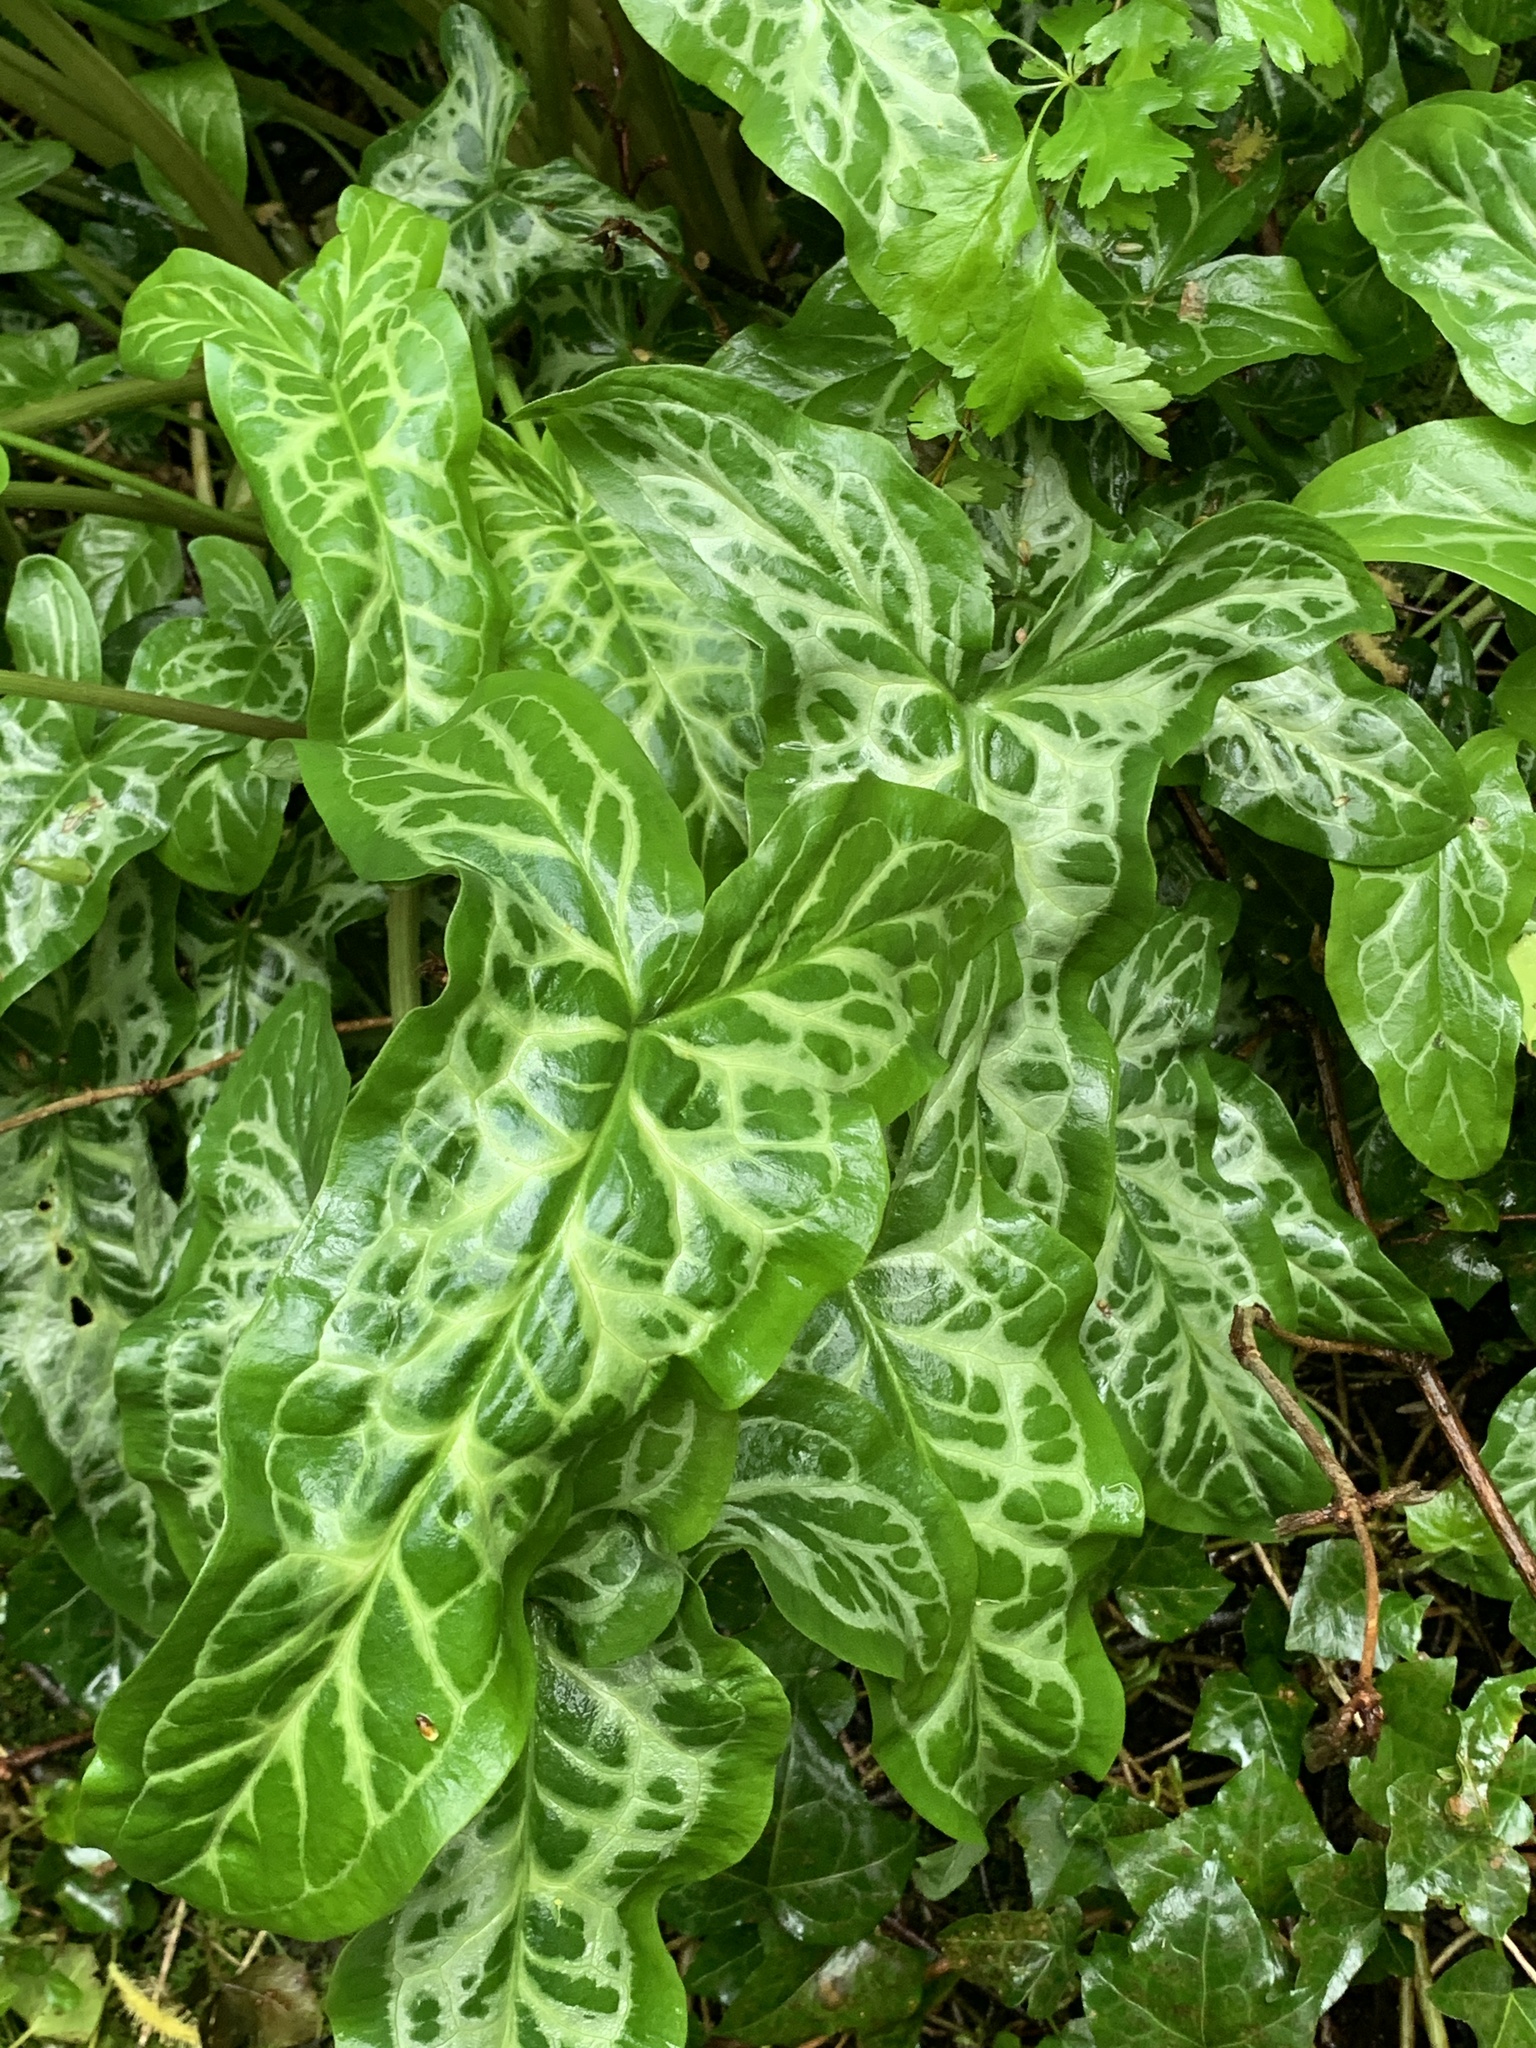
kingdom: Plantae
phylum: Tracheophyta
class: Liliopsida
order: Alismatales
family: Araceae
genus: Arum
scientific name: Arum italicum
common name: Italian lords-and-ladies
